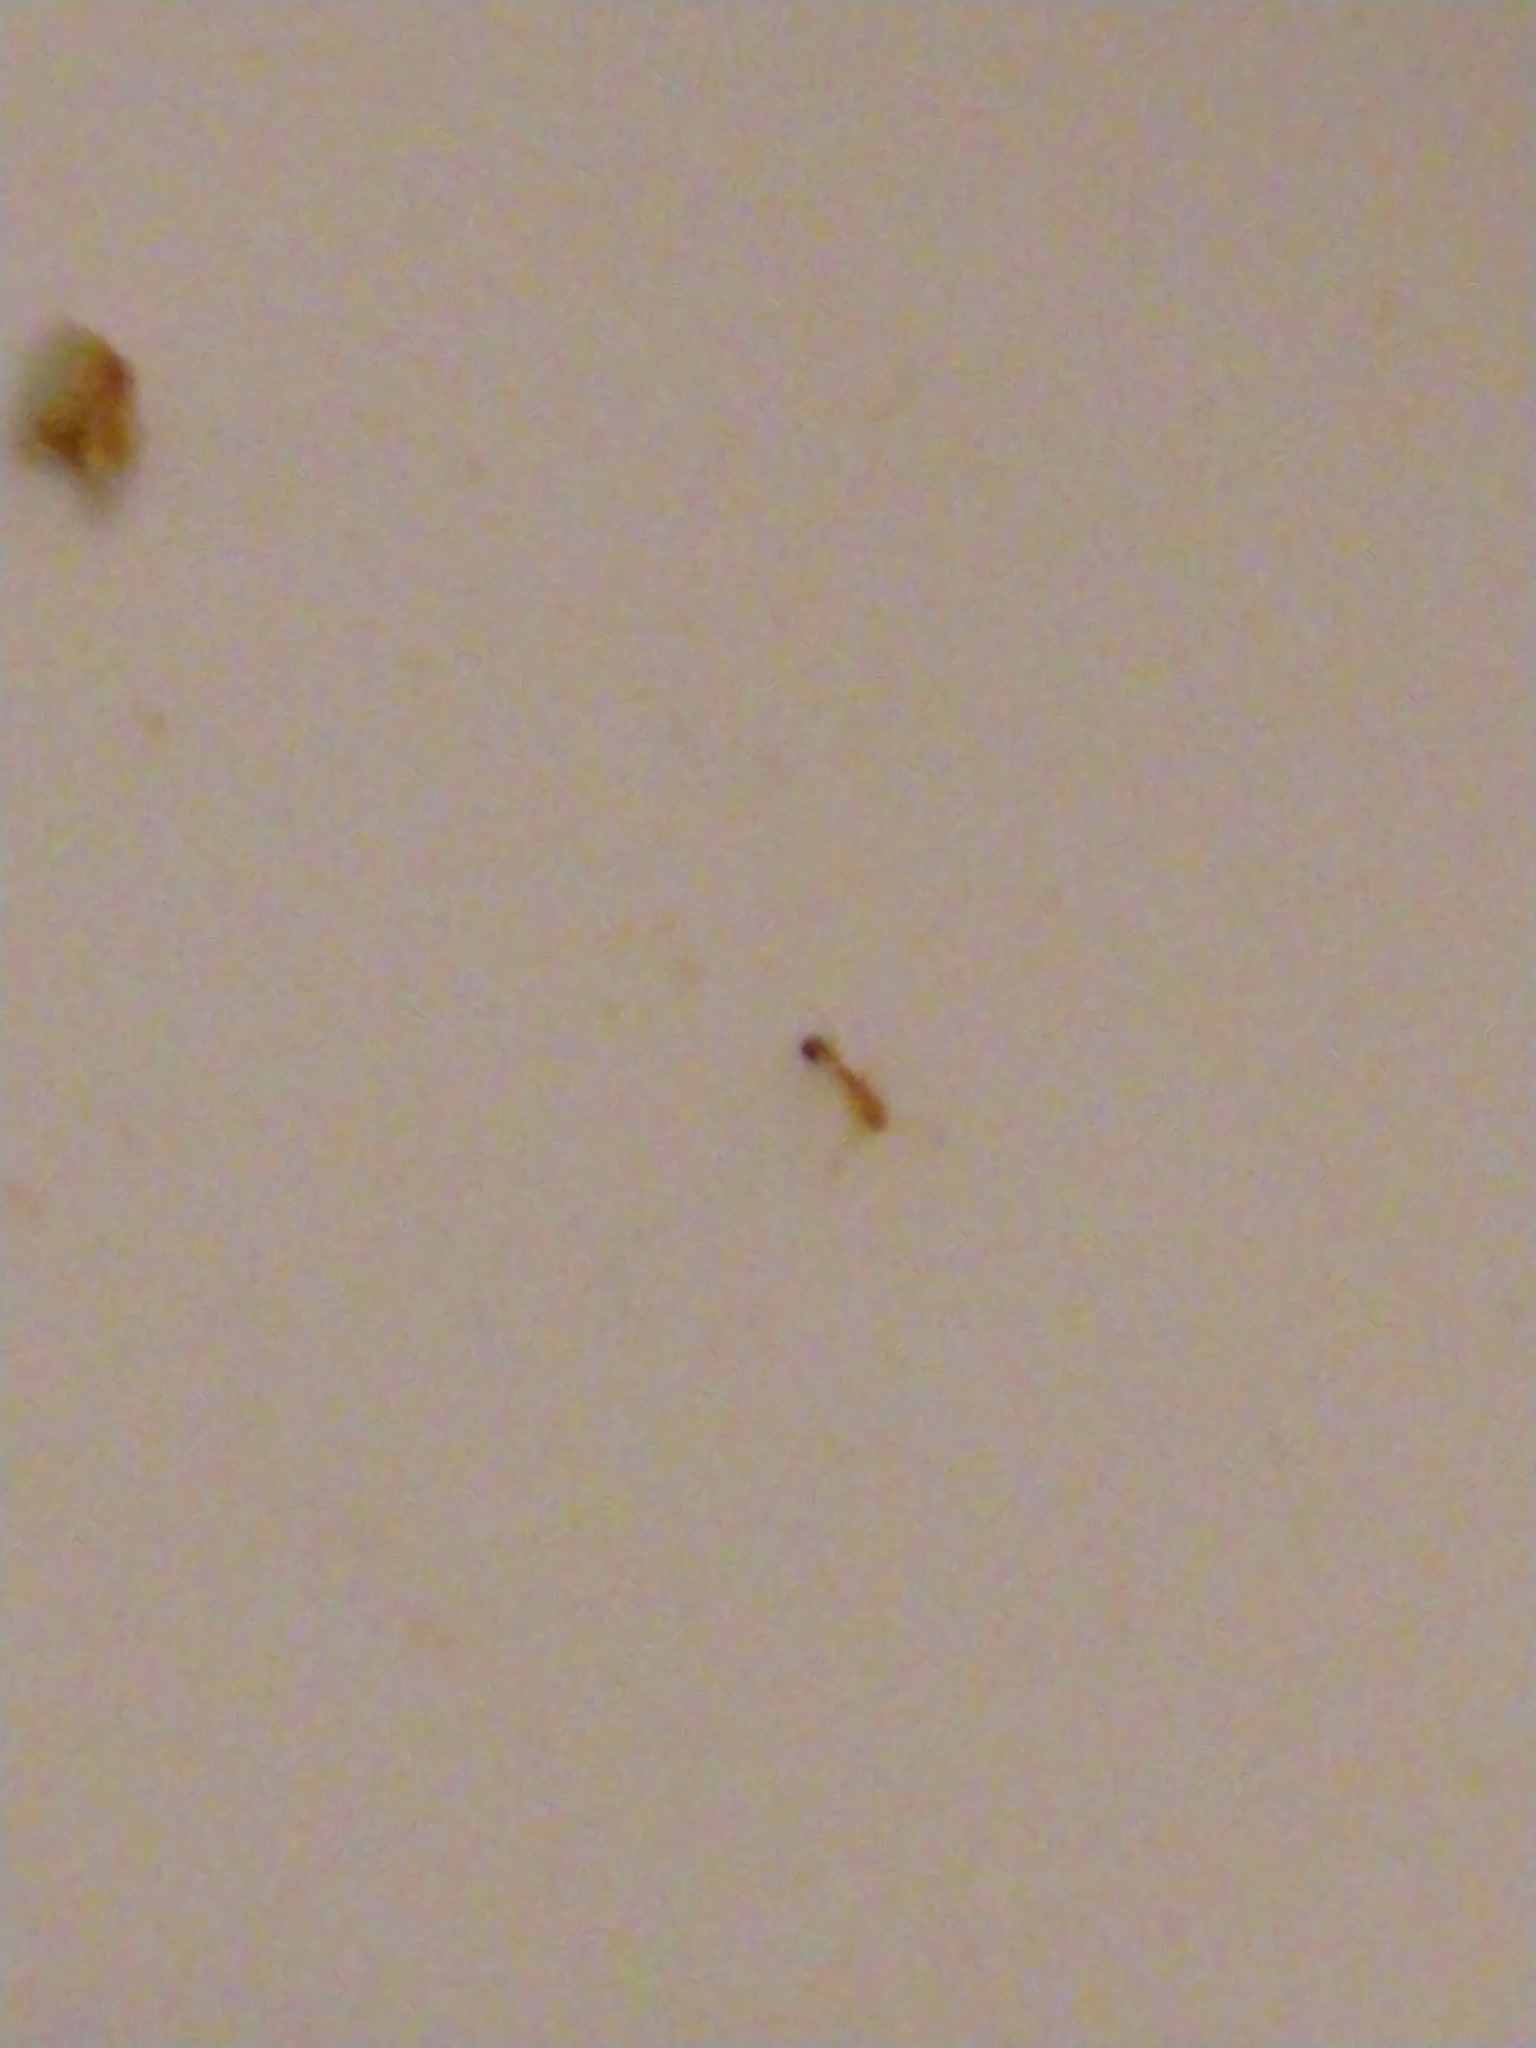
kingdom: Animalia
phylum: Arthropoda
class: Insecta
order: Hymenoptera
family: Formicidae
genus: Monomorium
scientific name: Monomorium pharaonis
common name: Pharaoh ant
